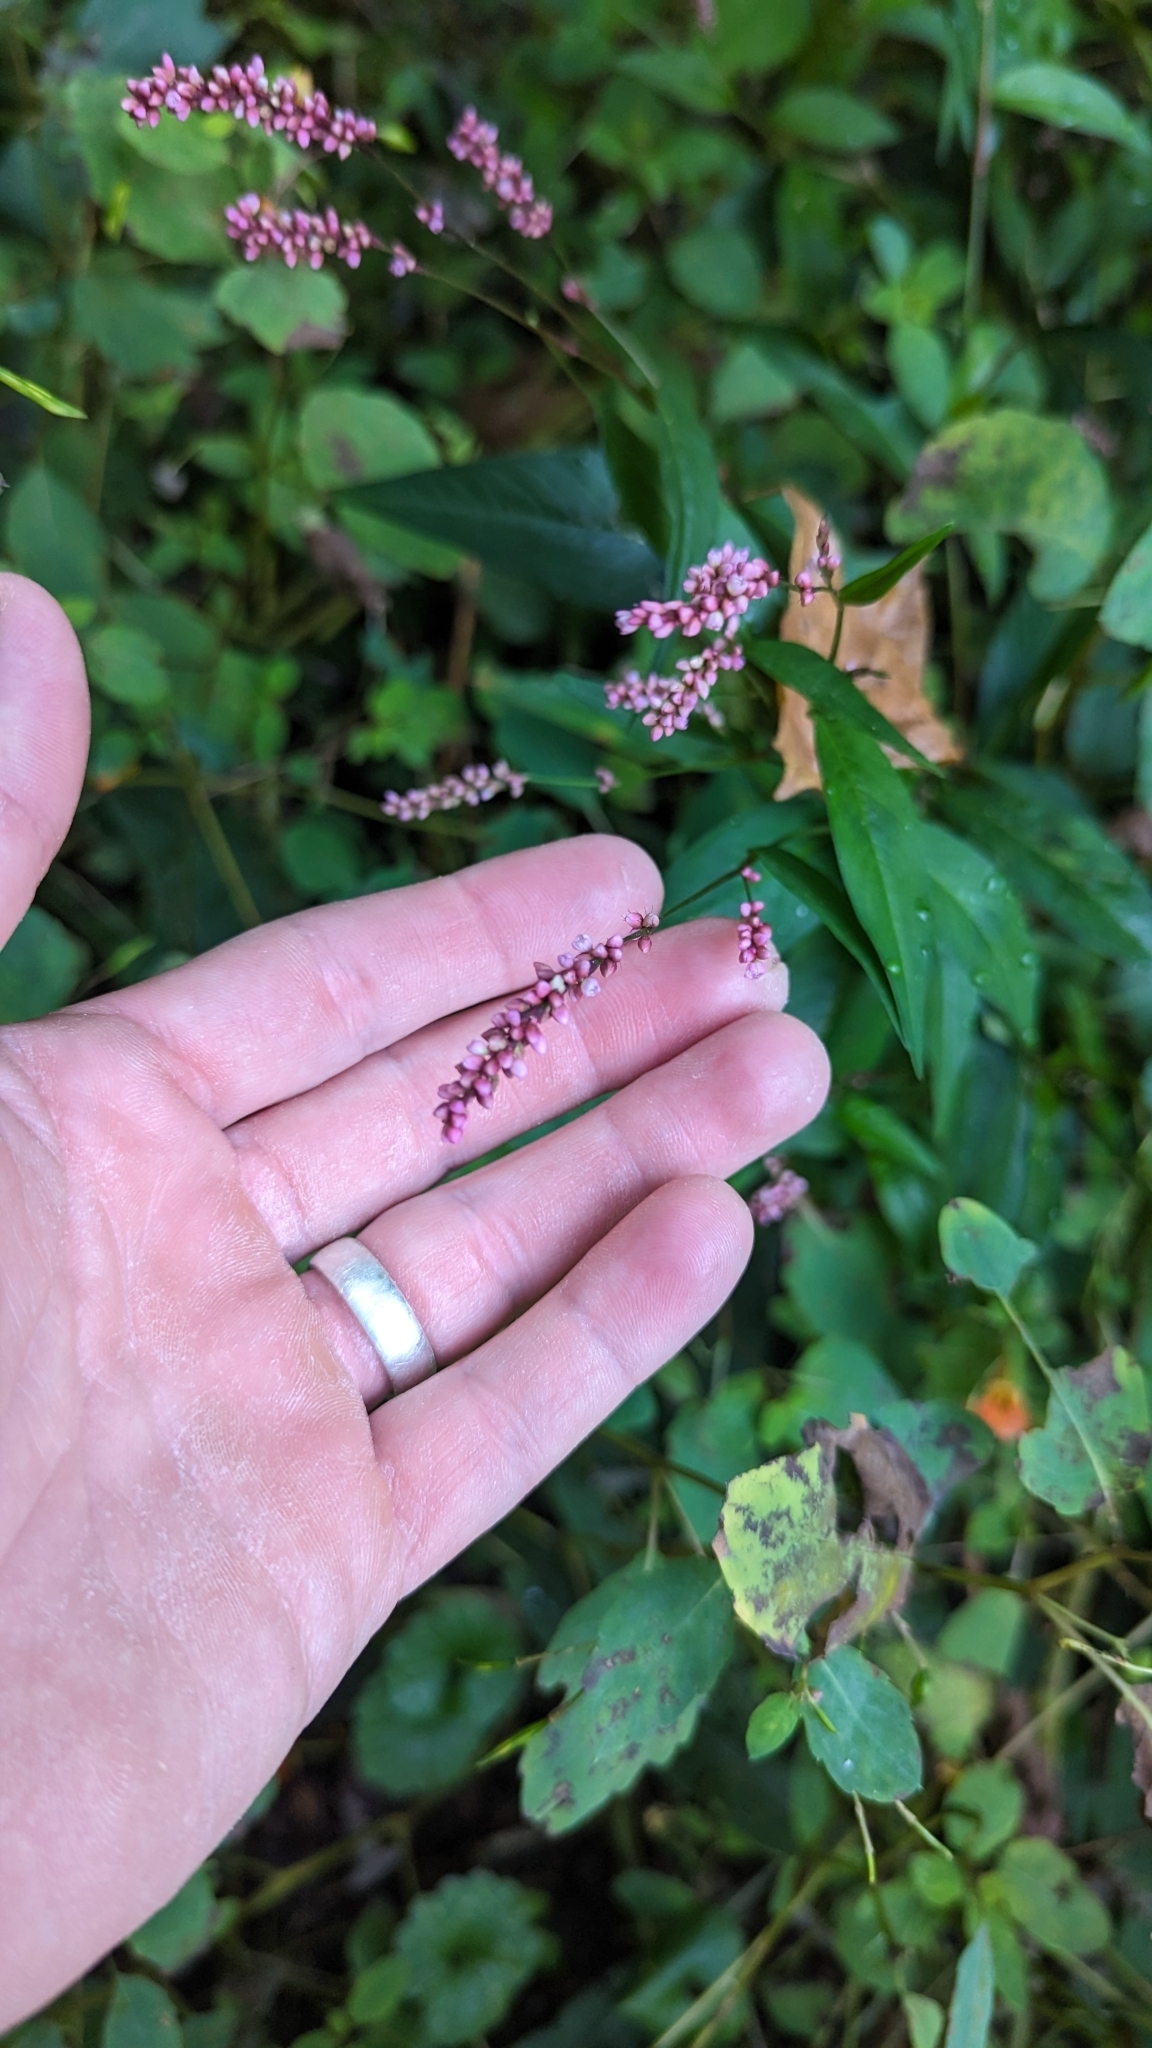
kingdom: Plantae
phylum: Tracheophyta
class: Magnoliopsida
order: Caryophyllales
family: Polygonaceae
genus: Persicaria
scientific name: Persicaria longiseta
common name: Bristly lady's-thumb
